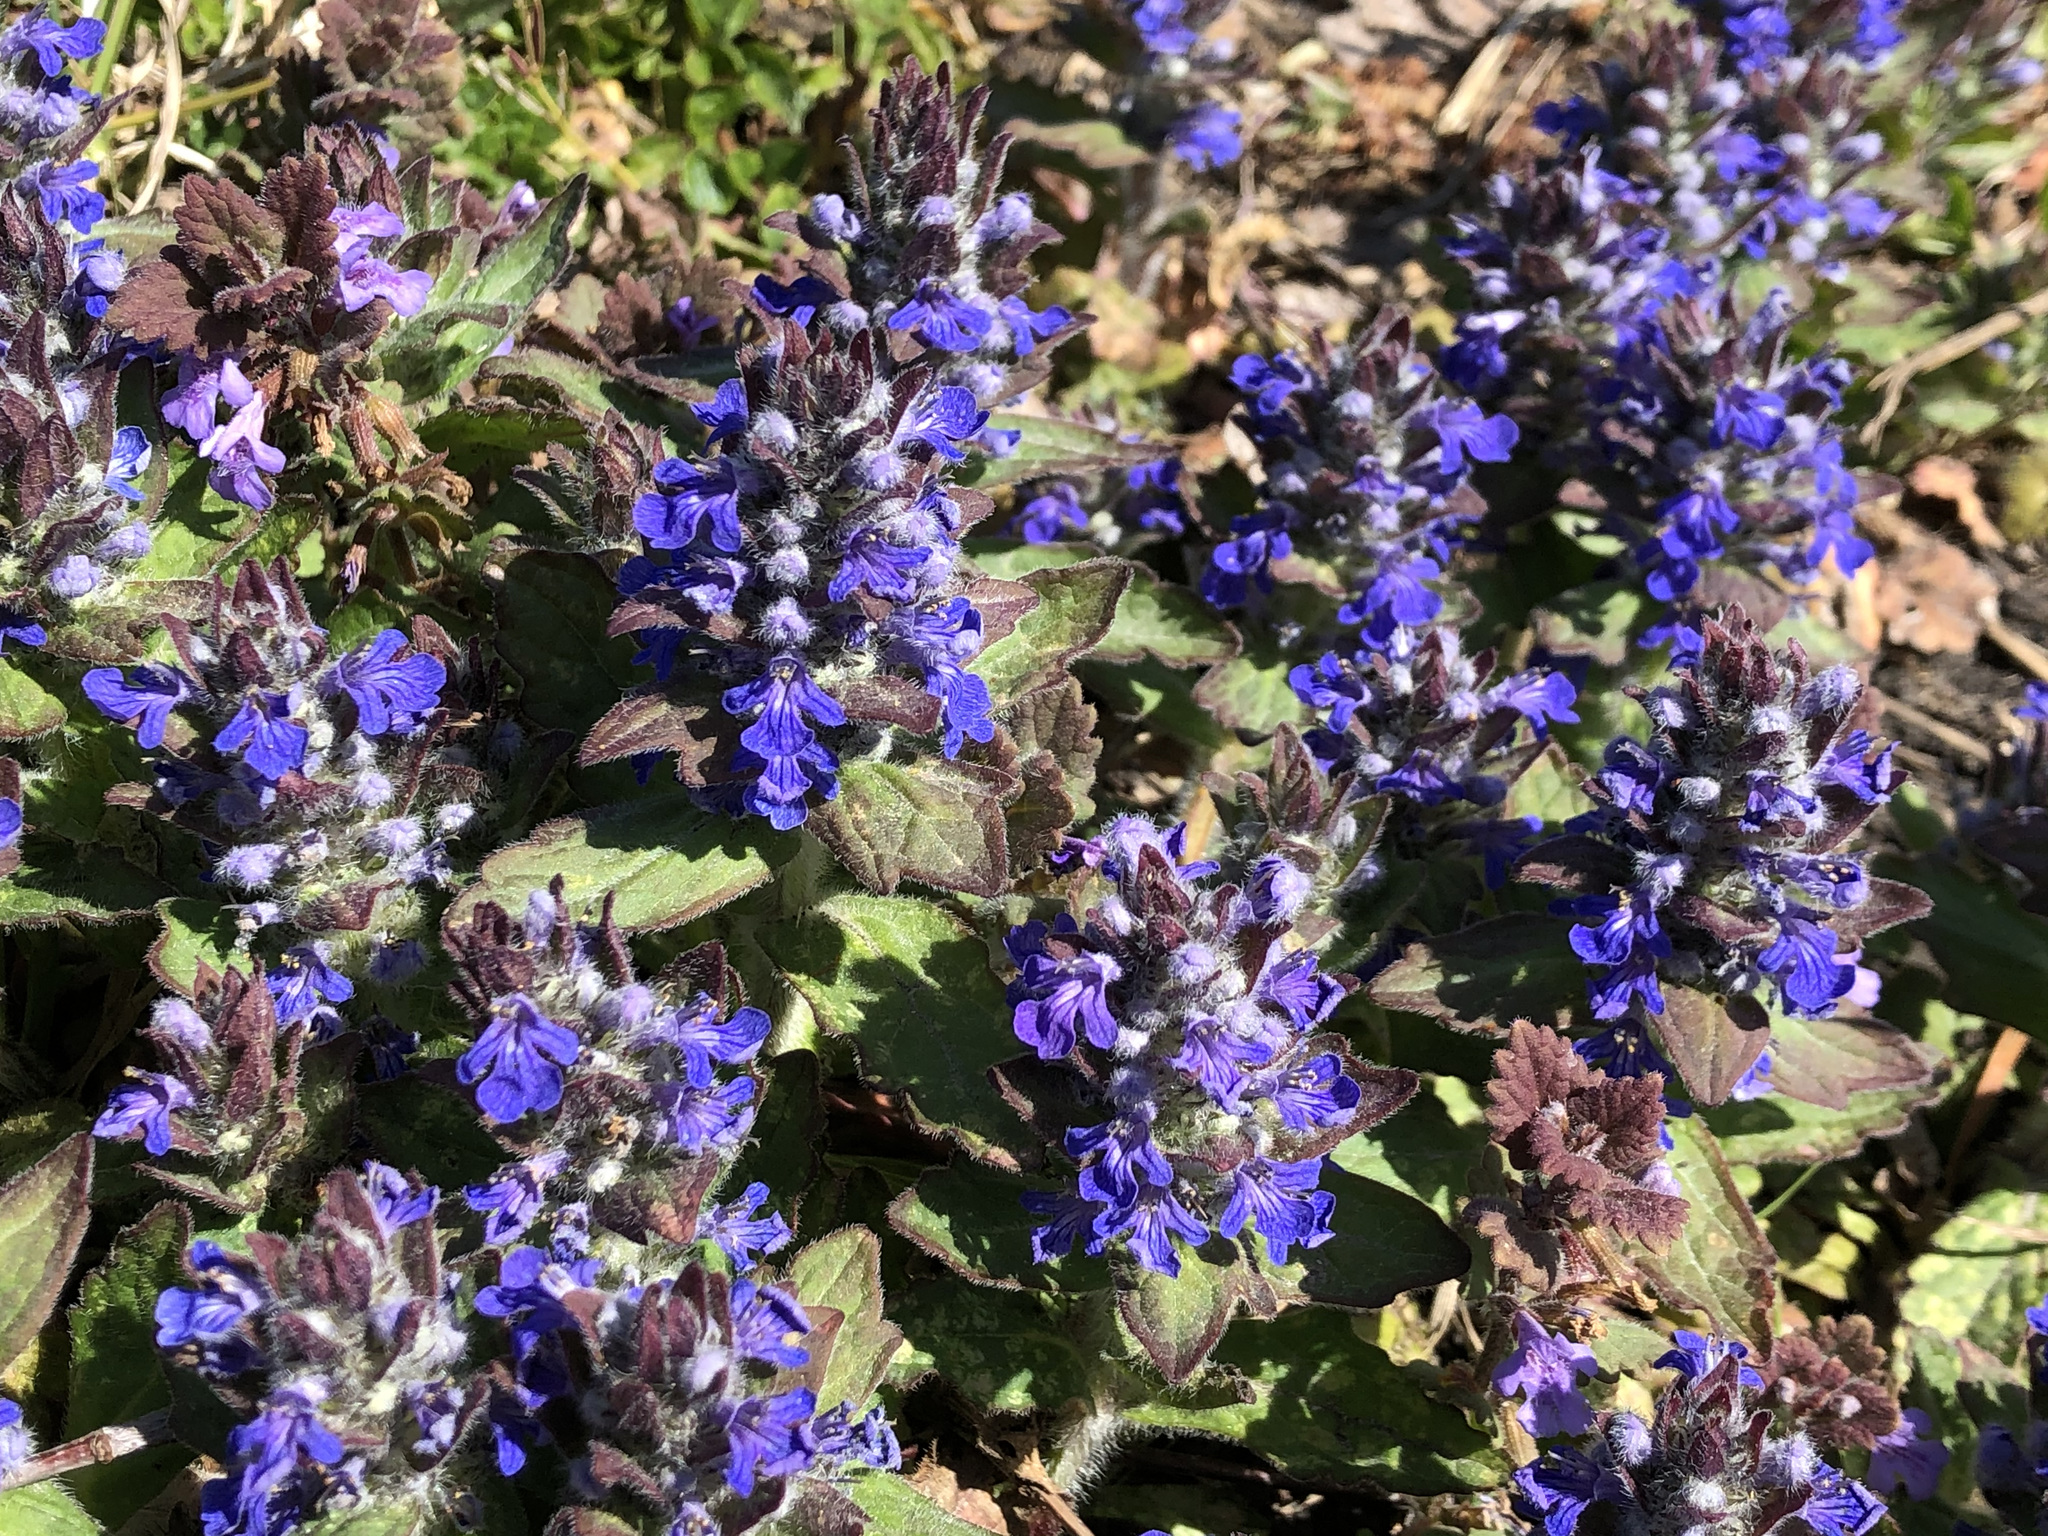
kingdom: Plantae
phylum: Tracheophyta
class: Magnoliopsida
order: Lamiales
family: Lamiaceae
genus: Ajuga
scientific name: Ajuga genevensis
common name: Blue bugle
